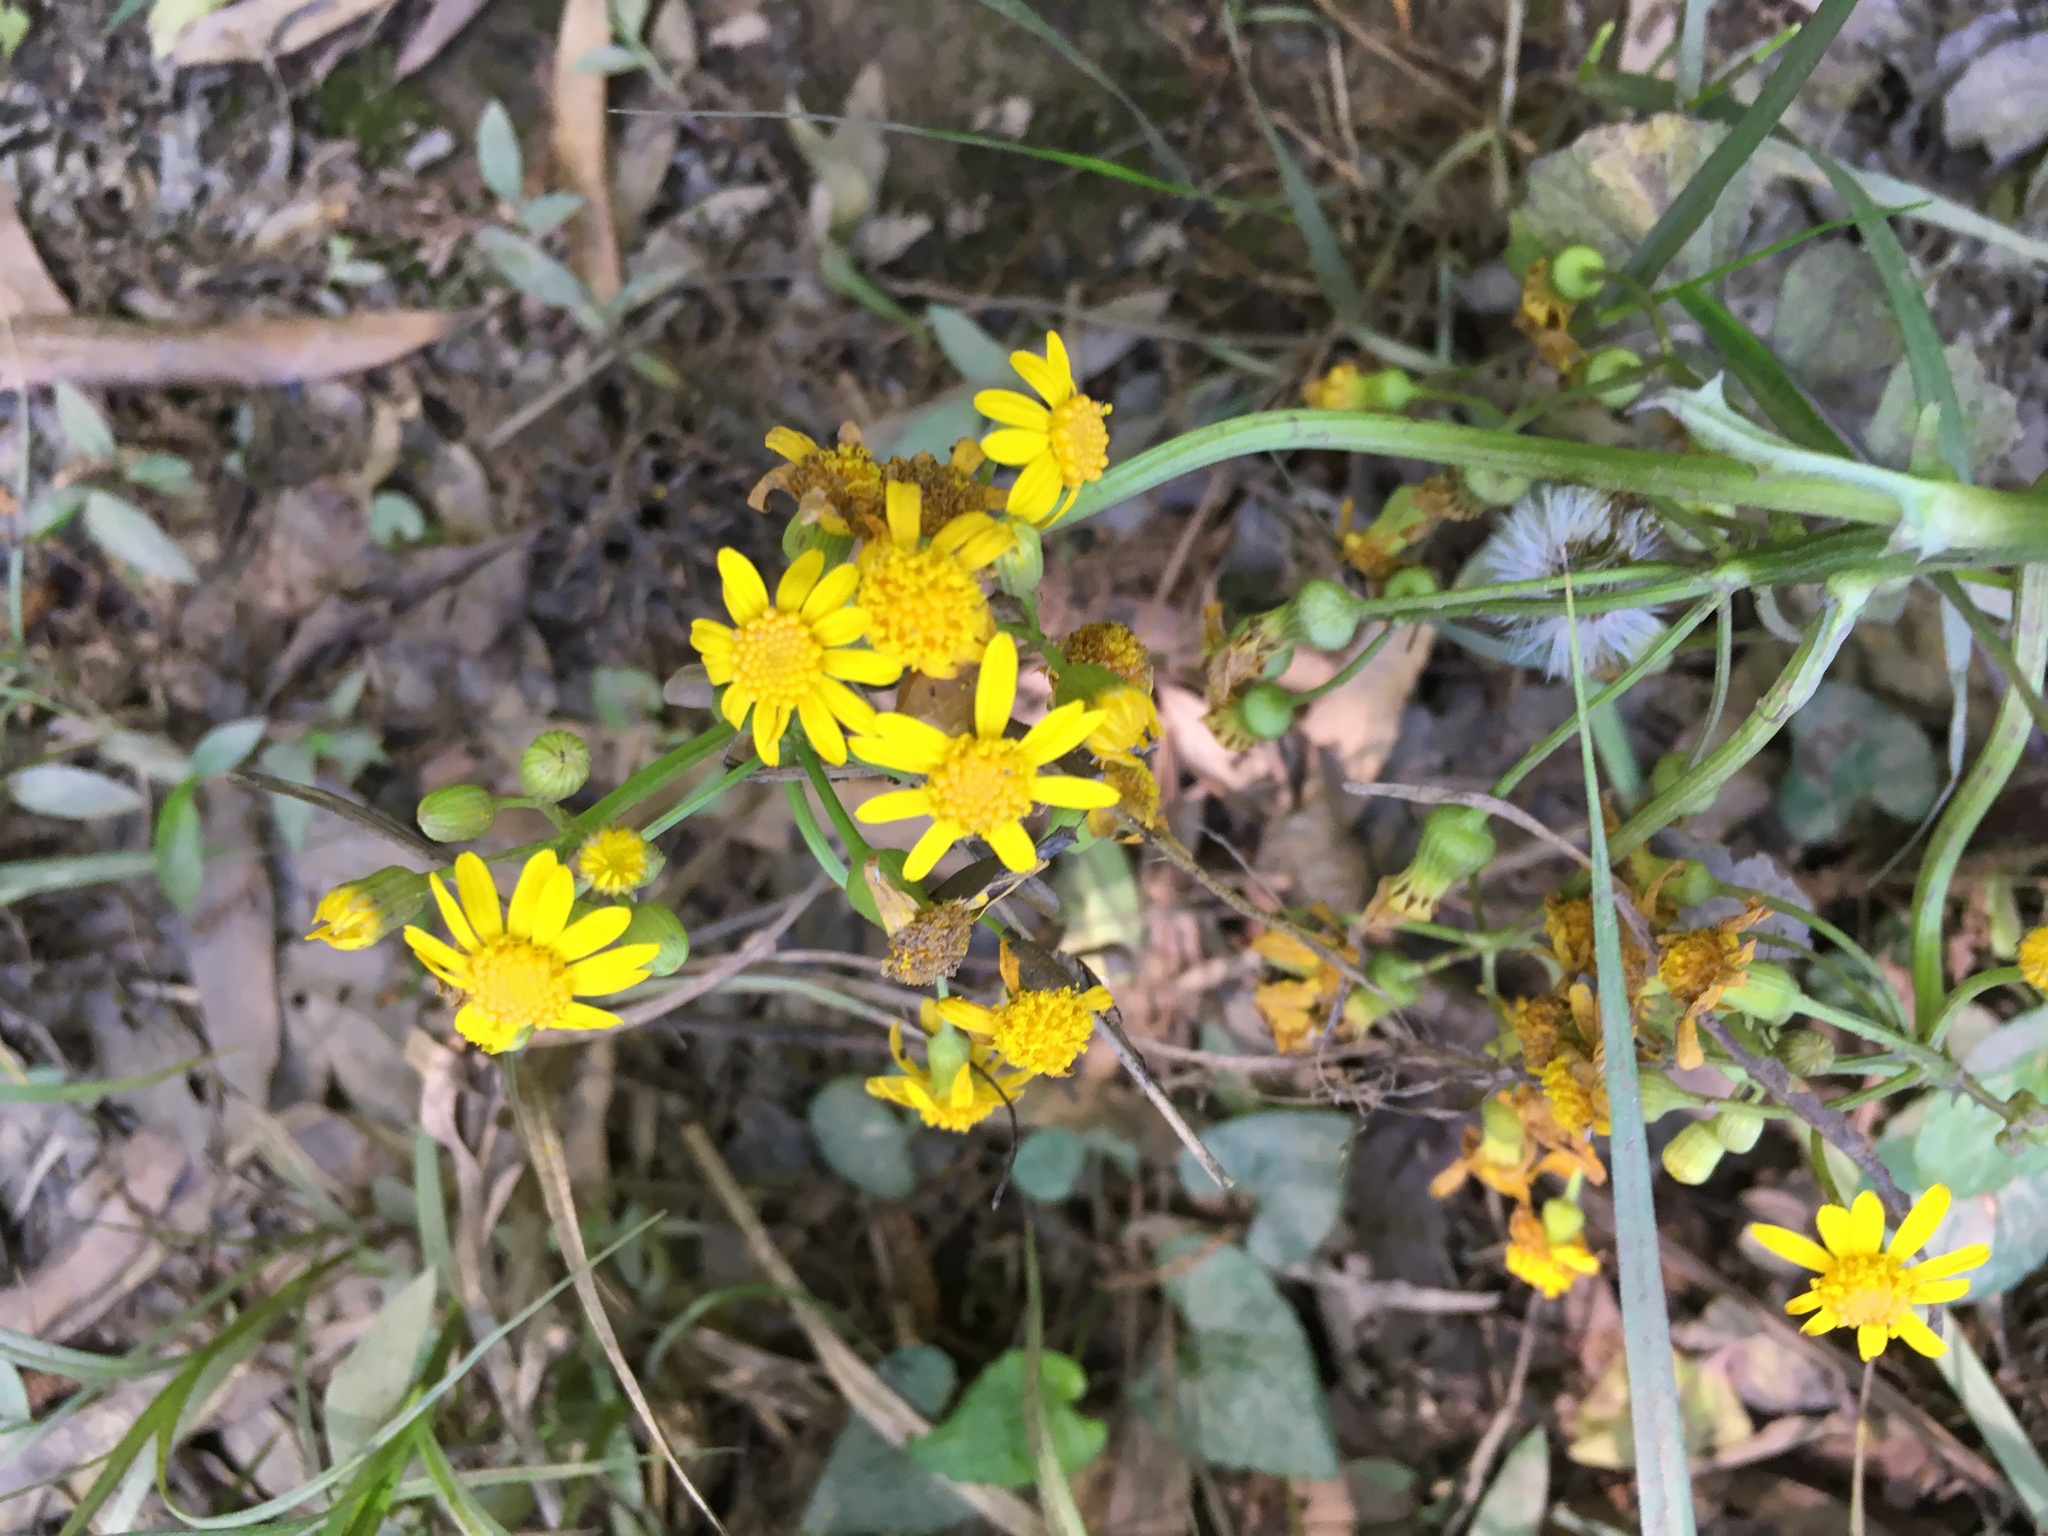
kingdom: Plantae
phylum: Tracheophyta
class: Magnoliopsida
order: Asterales
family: Asteraceae
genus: Packera
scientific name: Packera glabella
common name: Butterweed
